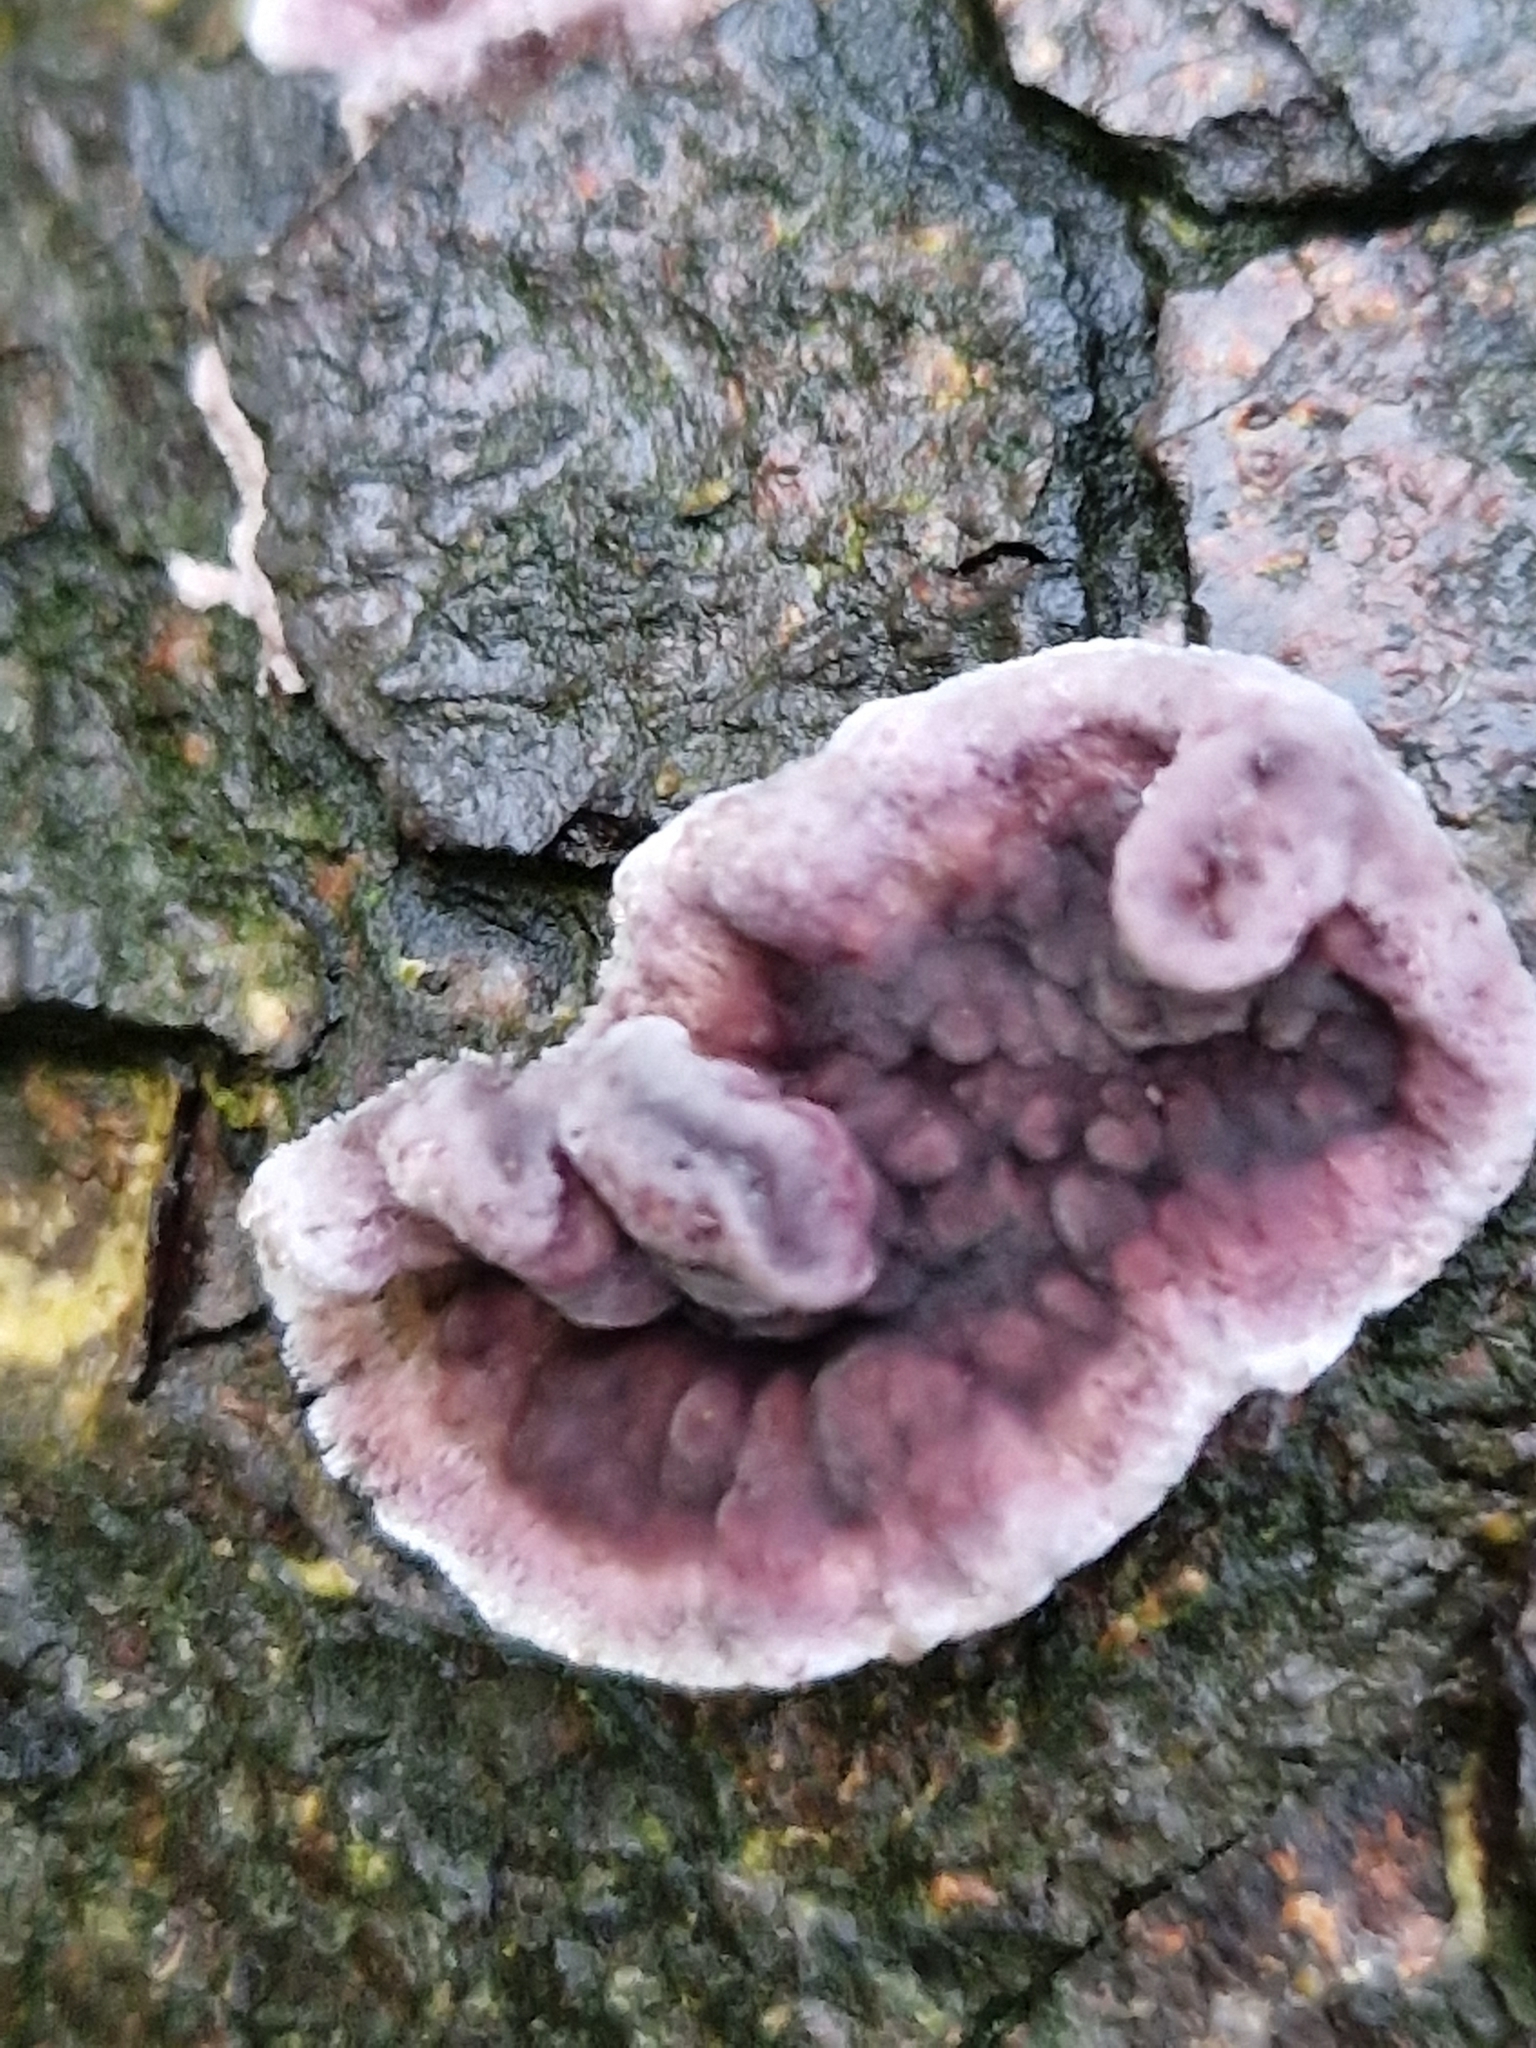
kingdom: Fungi
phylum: Basidiomycota
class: Agaricomycetes
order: Agaricales
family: Cyphellaceae
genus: Chondrostereum
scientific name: Chondrostereum purpureum
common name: Silver leaf disease
